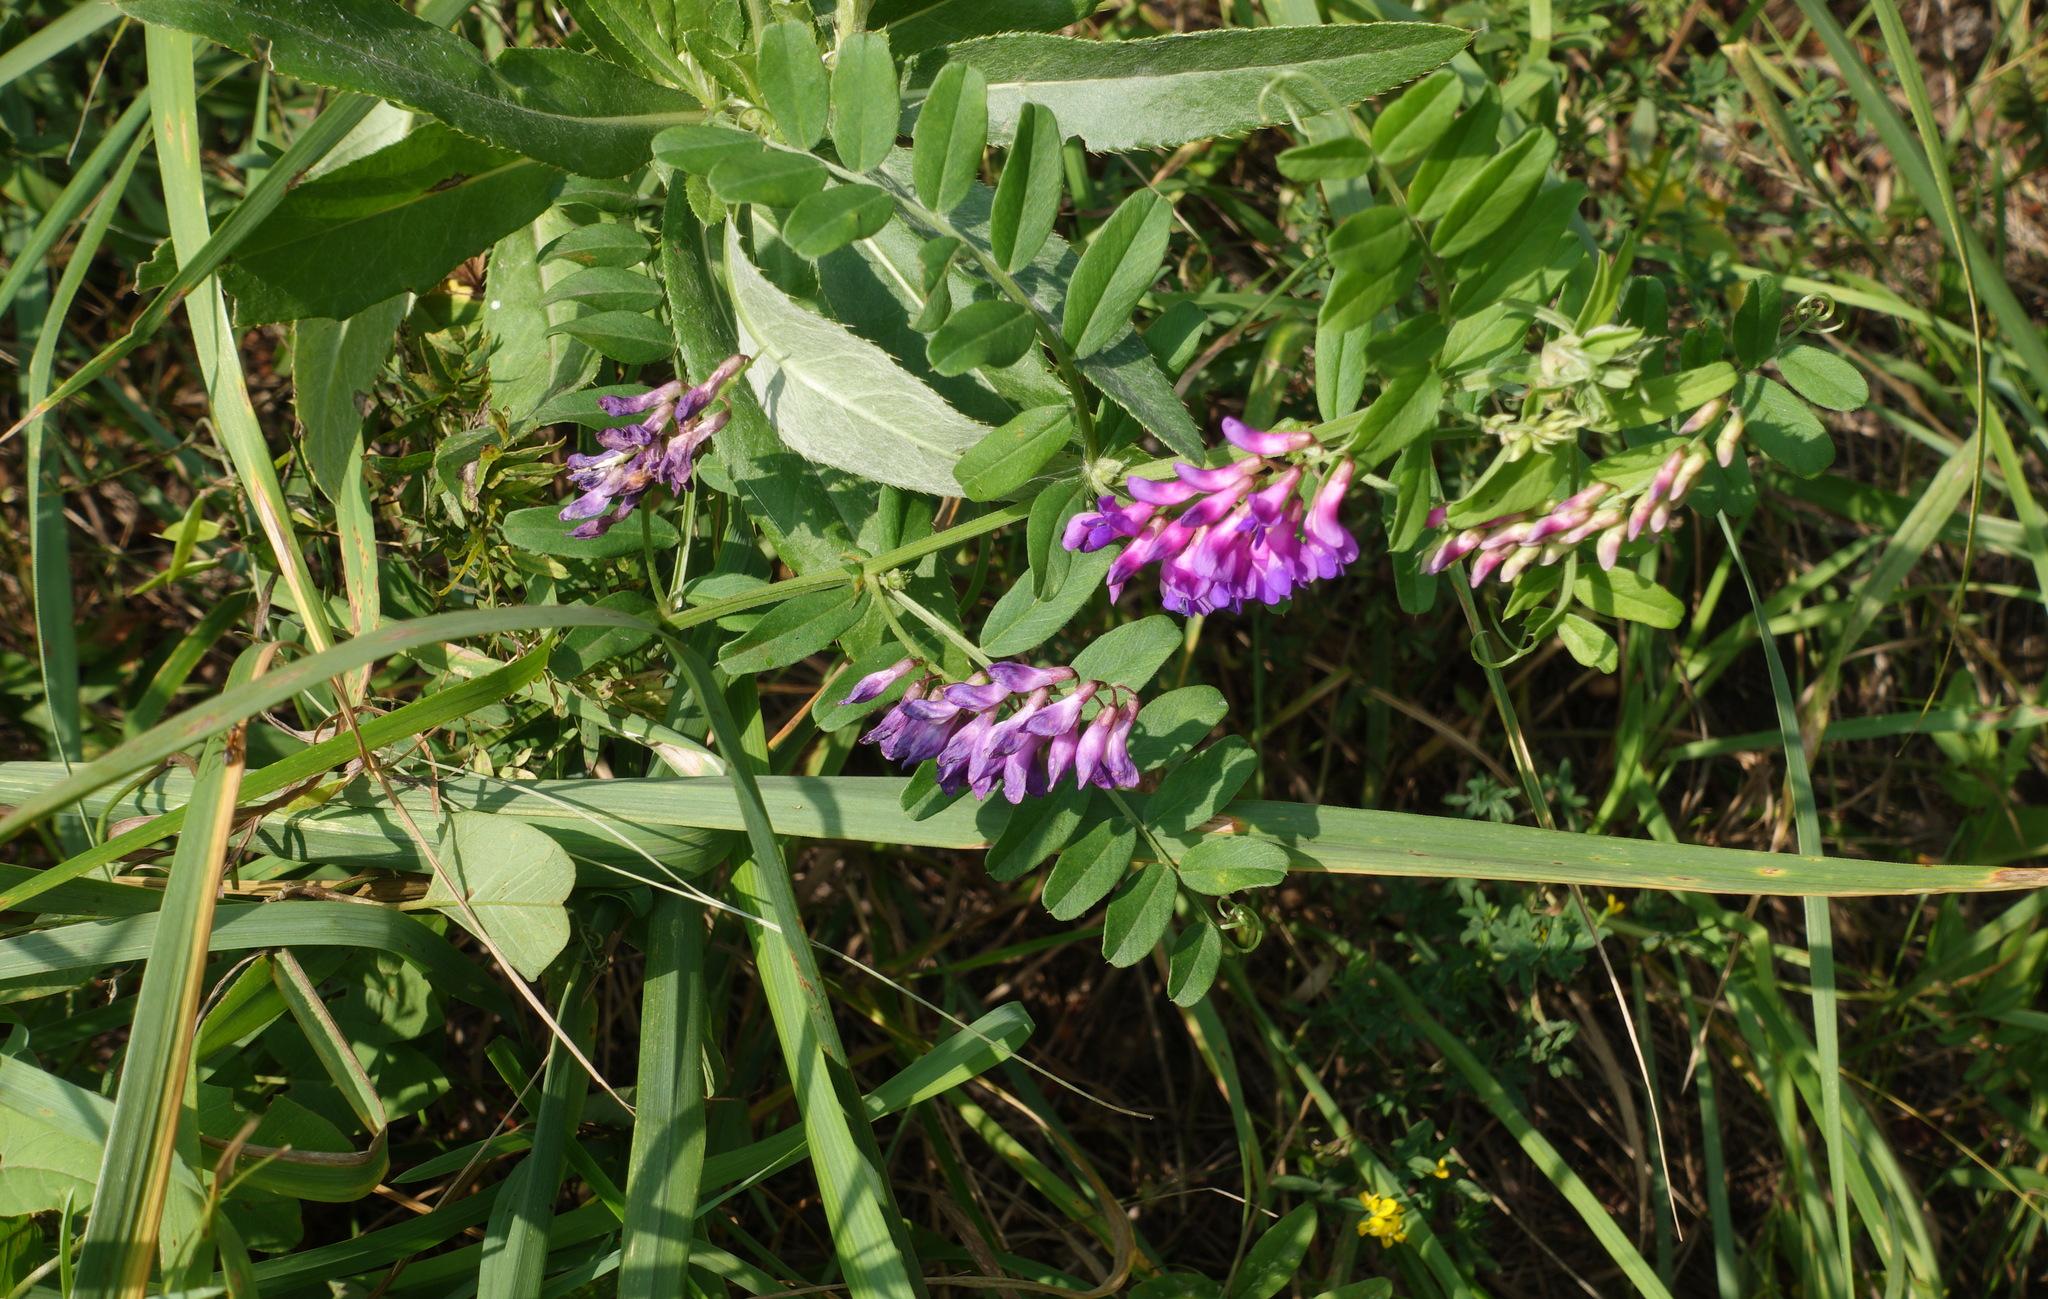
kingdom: Plantae
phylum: Tracheophyta
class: Magnoliopsida
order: Fabales
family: Fabaceae
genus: Vicia
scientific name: Vicia amoena
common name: Cheder ebs
